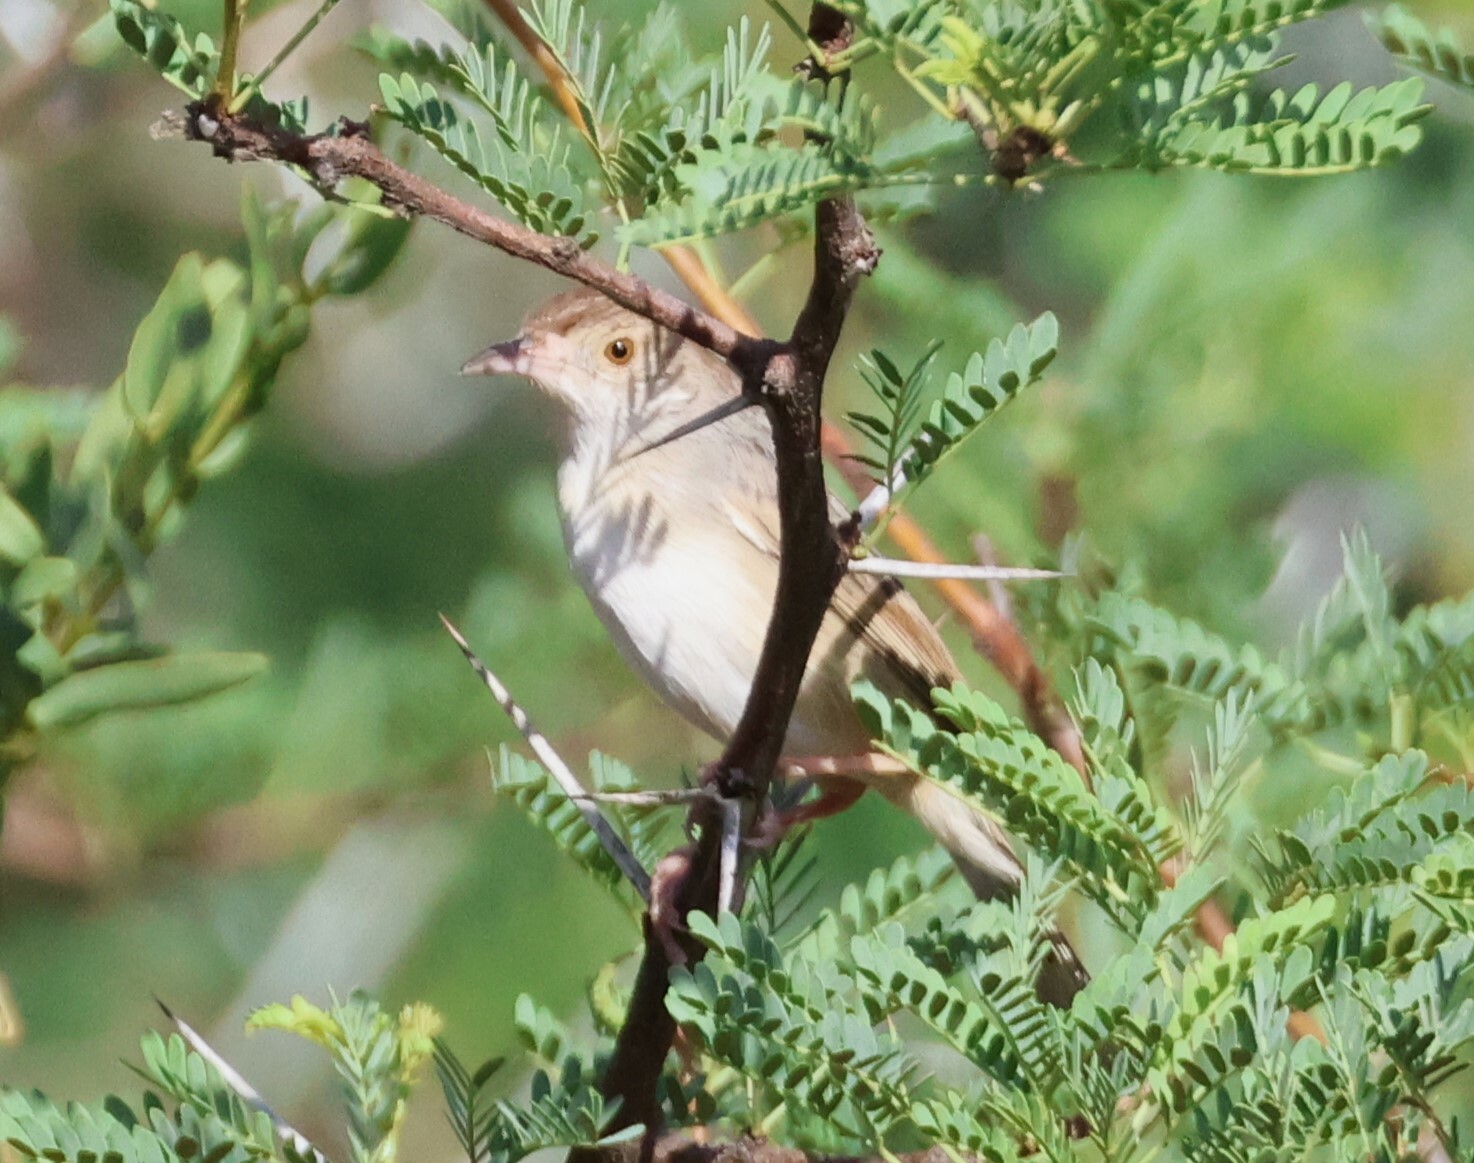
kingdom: Animalia
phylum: Chordata
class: Aves
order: Passeriformes
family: Cisticolidae
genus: Cisticola
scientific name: Cisticola chiniana
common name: Rattling cisticola
